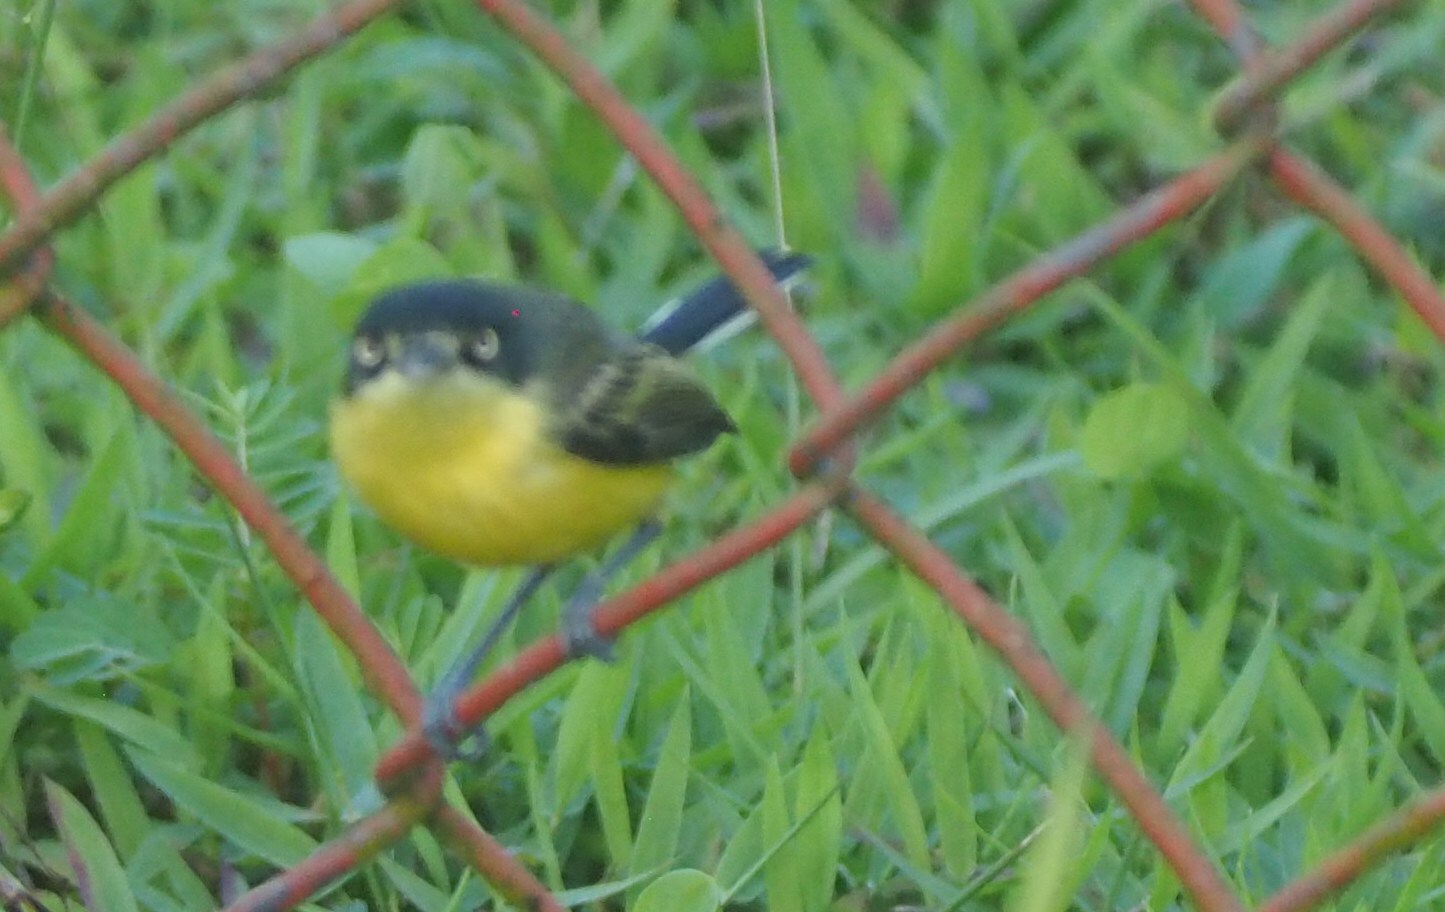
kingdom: Animalia
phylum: Chordata
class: Aves
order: Passeriformes
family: Tyrannidae
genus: Todirostrum
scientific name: Todirostrum cinereum
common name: Common tody-flycatcher
